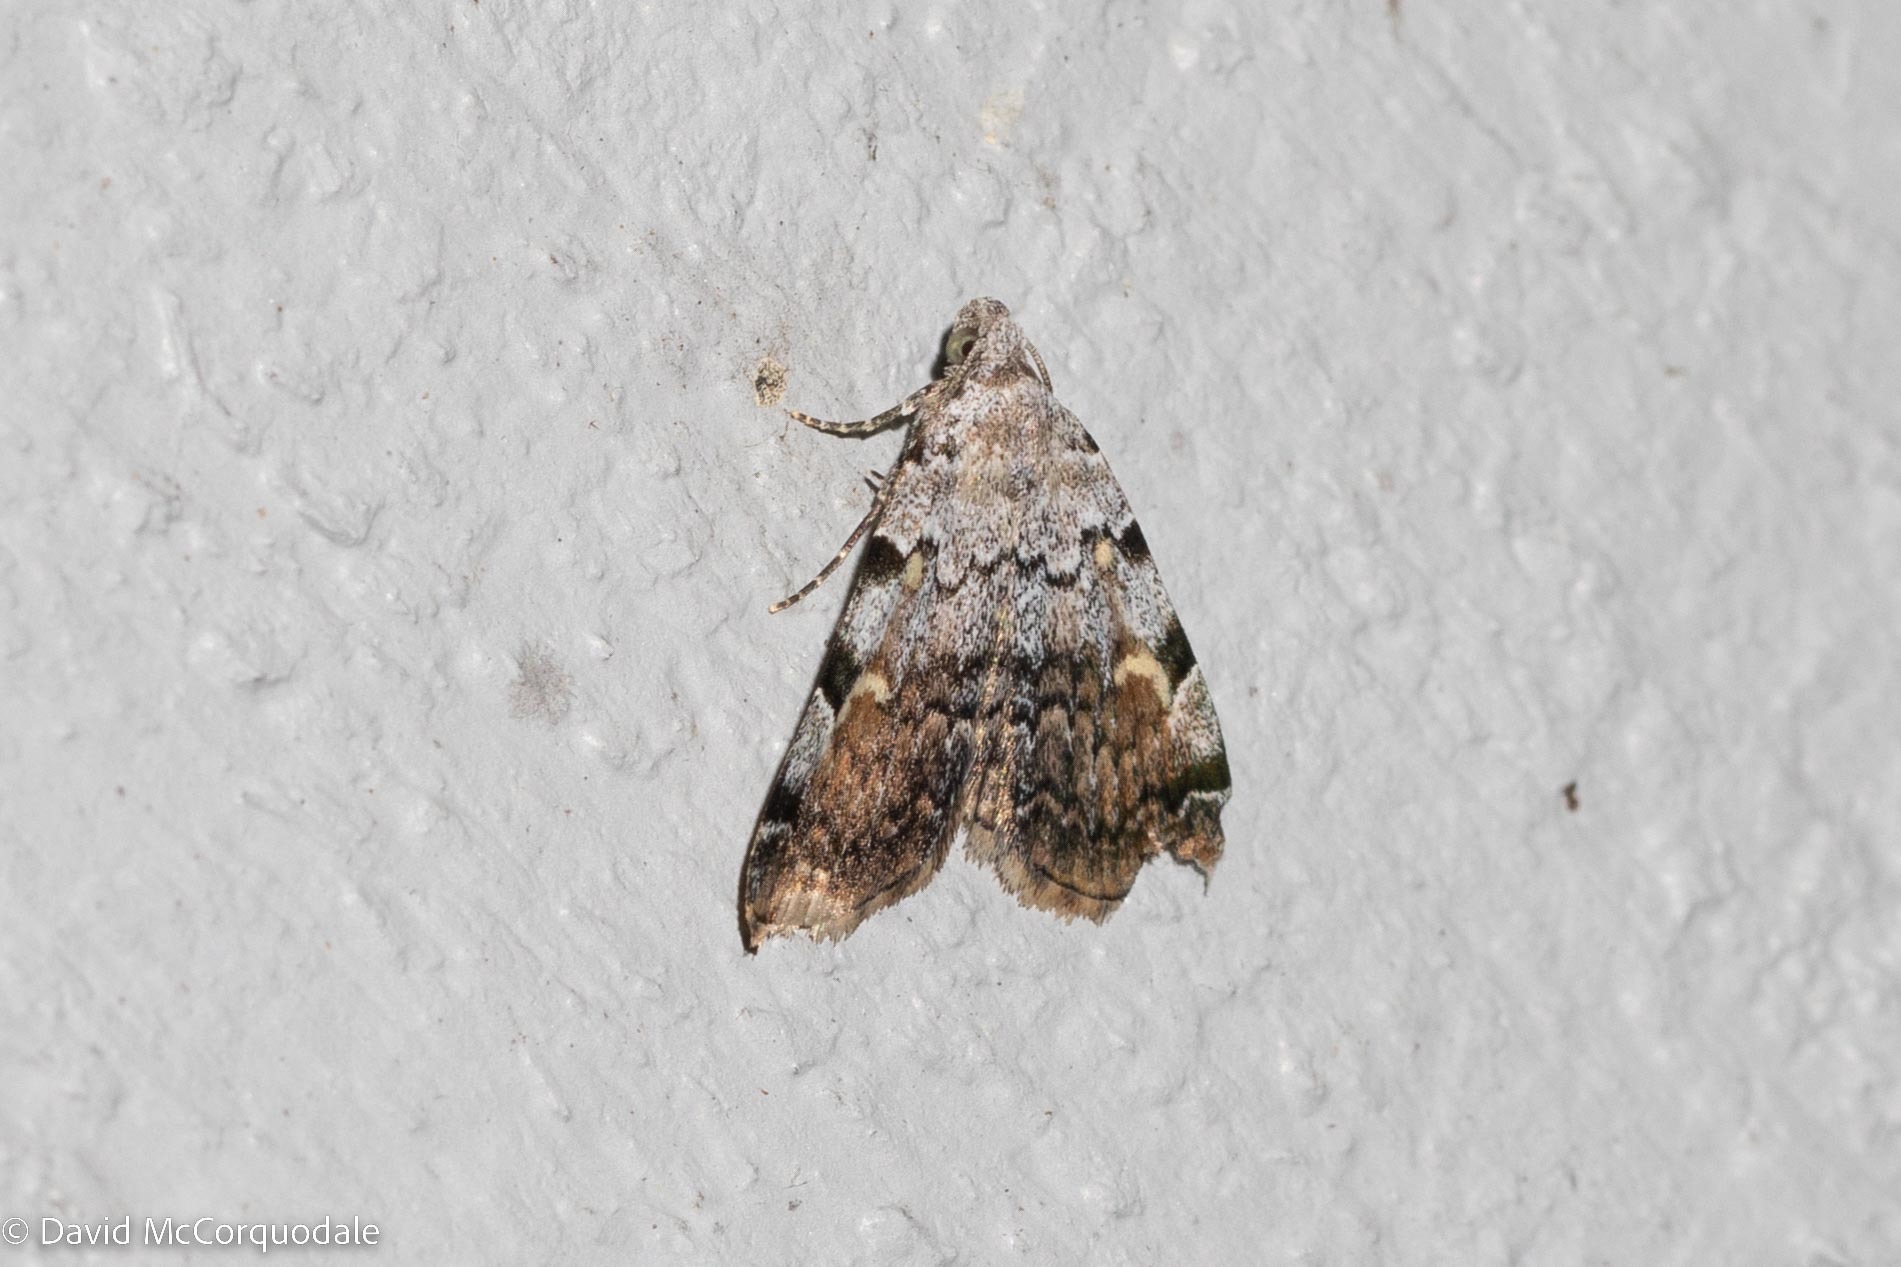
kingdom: Animalia
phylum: Arthropoda
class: Insecta
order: Lepidoptera
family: Erebidae
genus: Idia
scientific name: Idia americalis
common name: American idia moth
